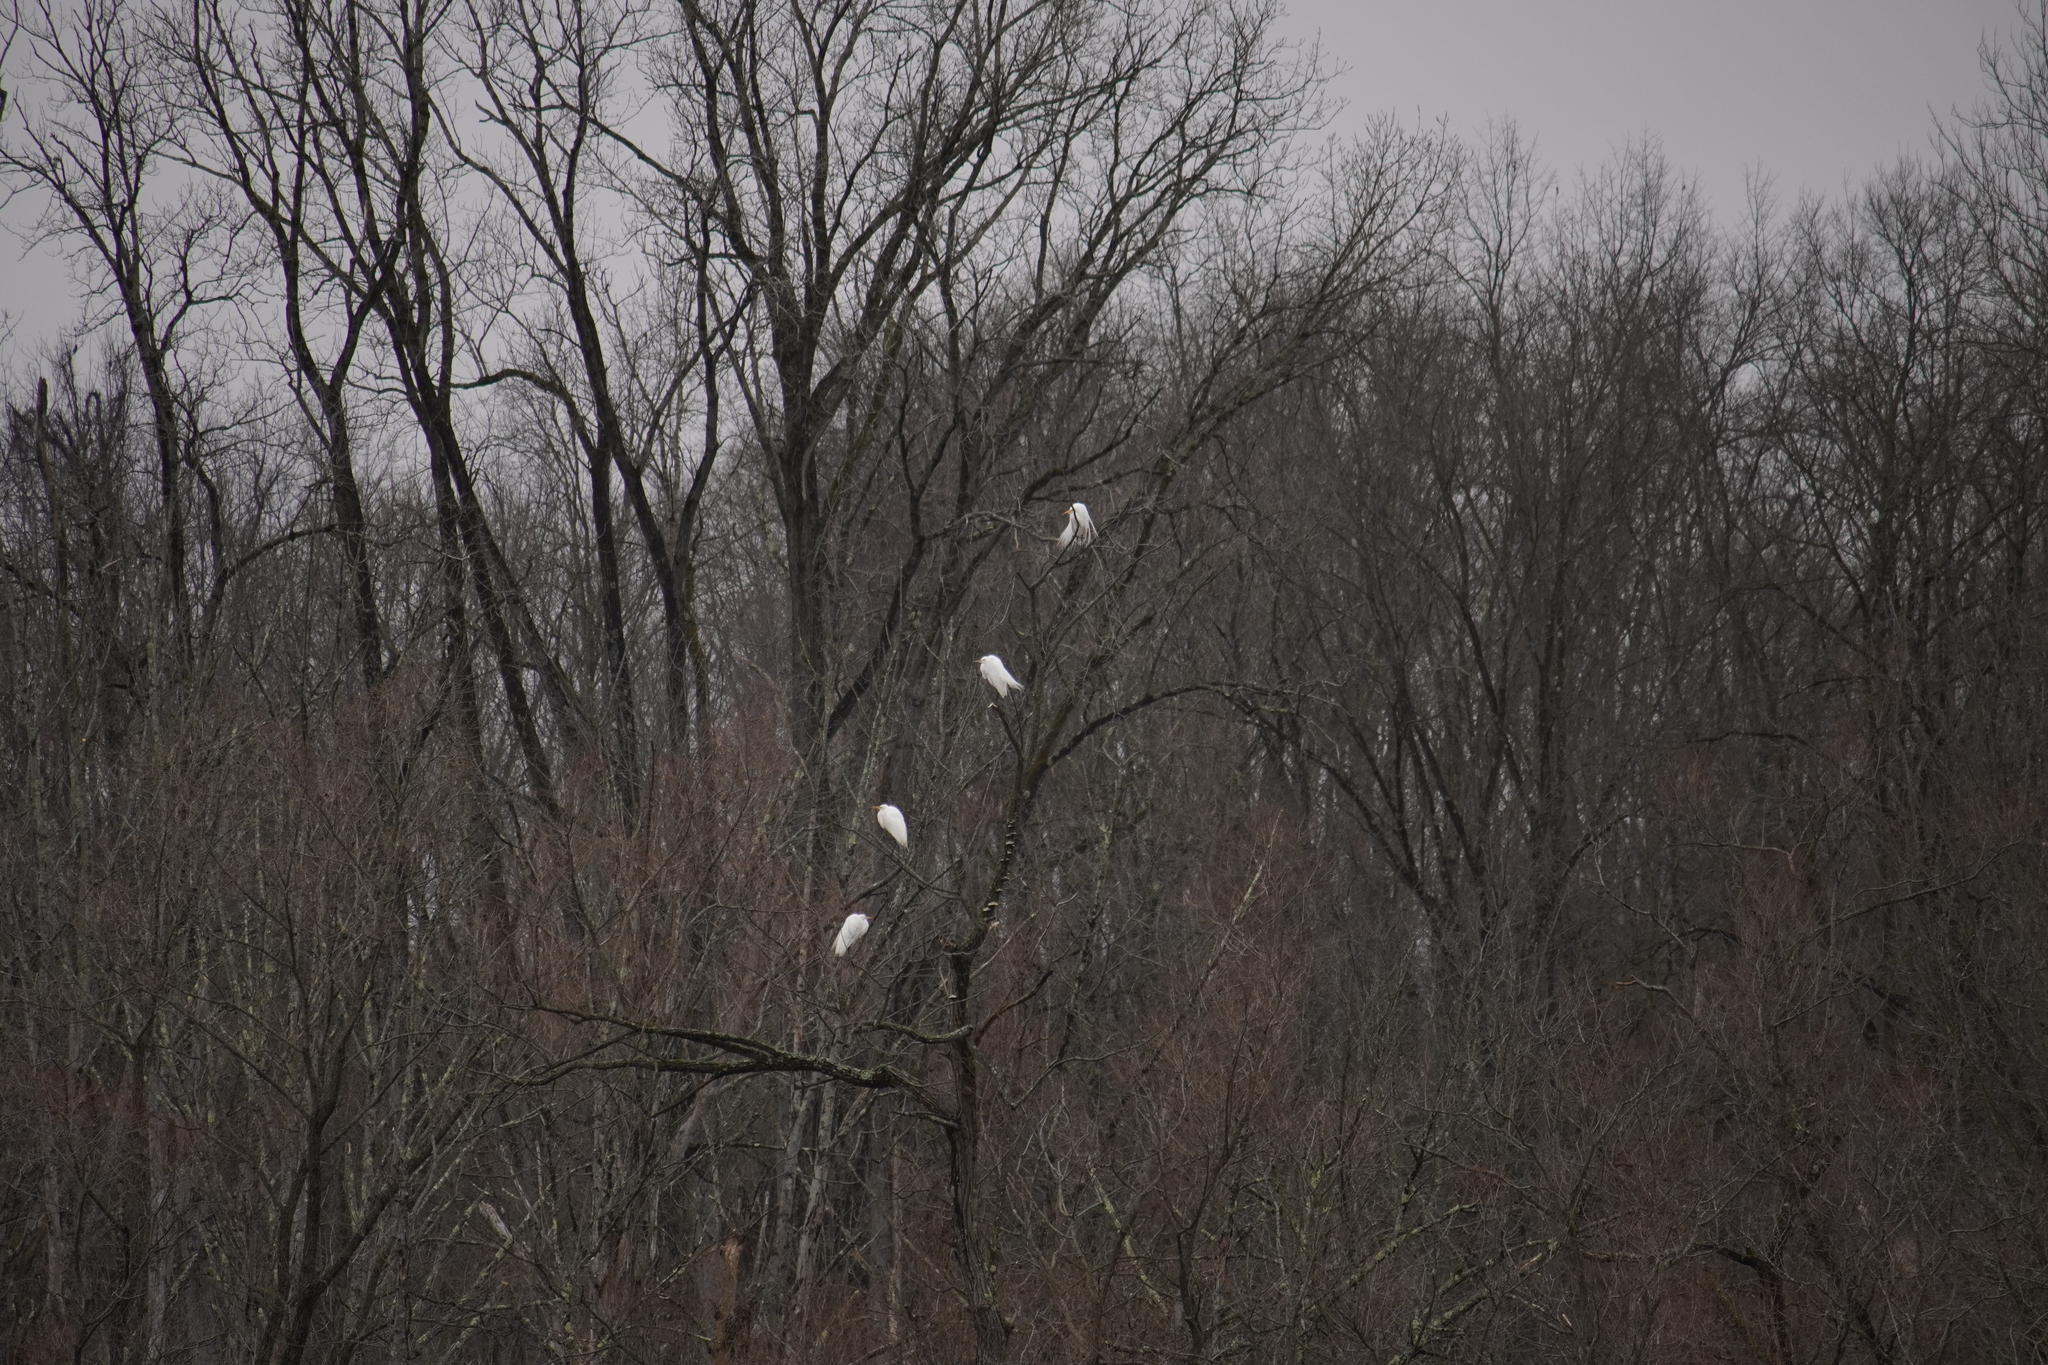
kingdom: Animalia
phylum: Chordata
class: Aves
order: Pelecaniformes
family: Ardeidae
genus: Ardea
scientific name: Ardea alba
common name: Great egret
